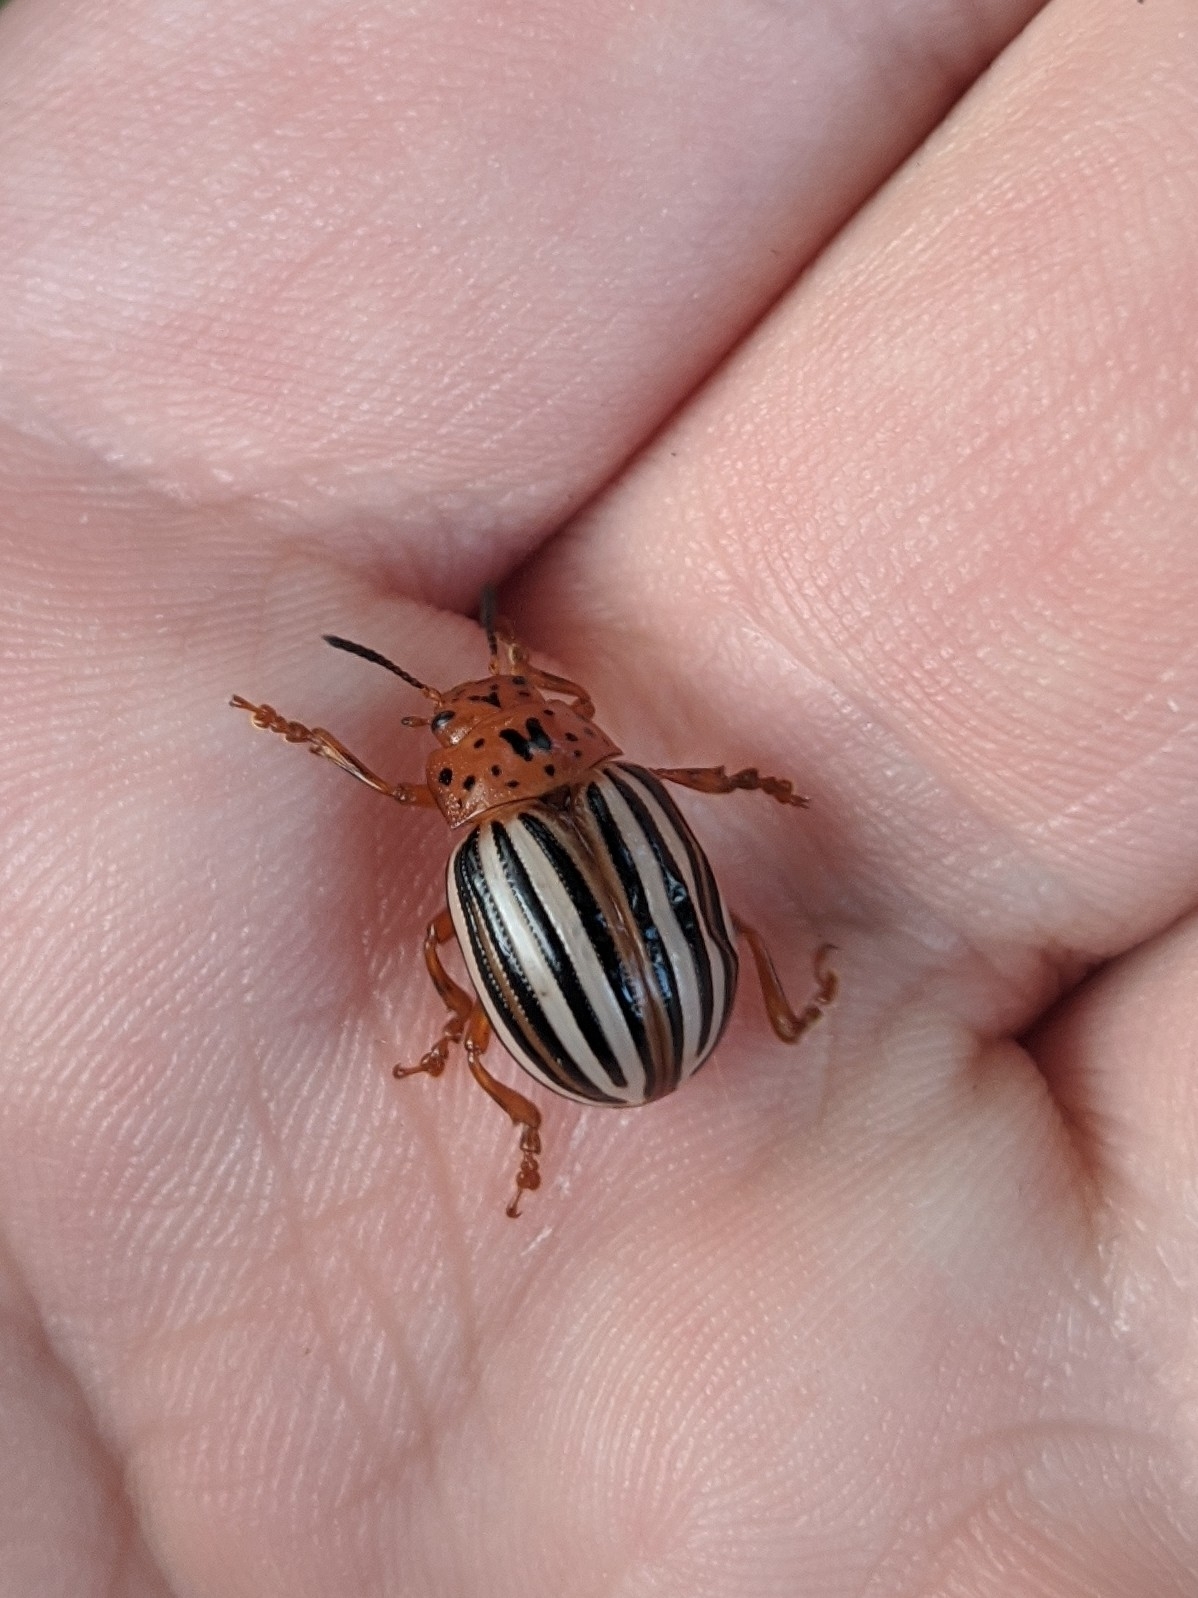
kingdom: Animalia
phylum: Arthropoda
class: Insecta
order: Coleoptera
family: Chrysomelidae
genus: Leptinotarsa
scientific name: Leptinotarsa juncta
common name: False potato beetle
